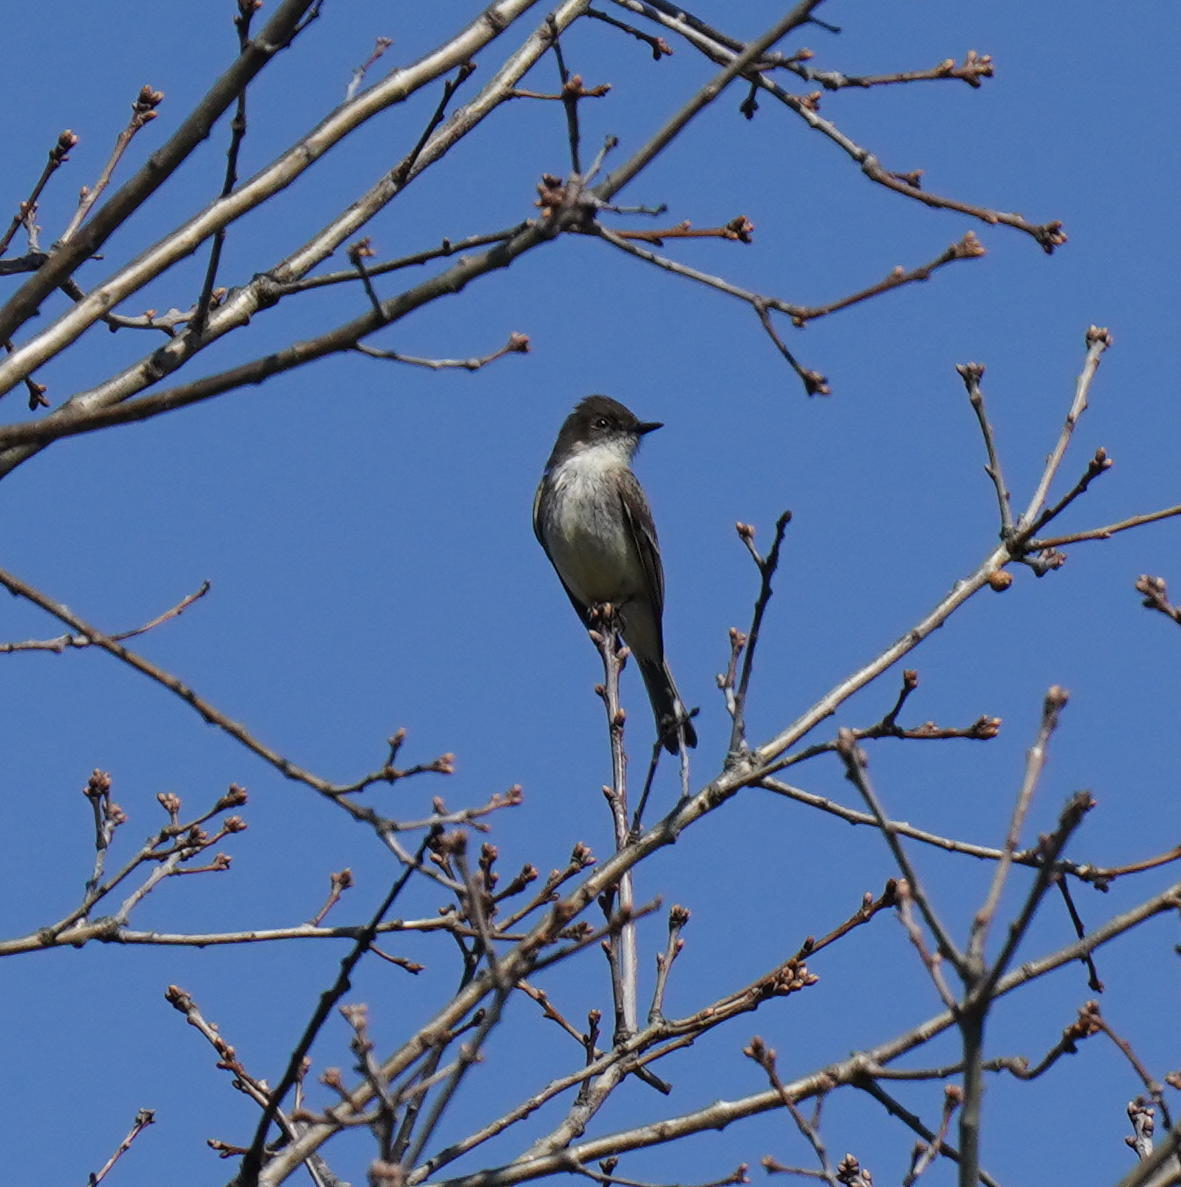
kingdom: Animalia
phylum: Chordata
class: Aves
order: Passeriformes
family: Tyrannidae
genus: Sayornis
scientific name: Sayornis phoebe
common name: Eastern phoebe
